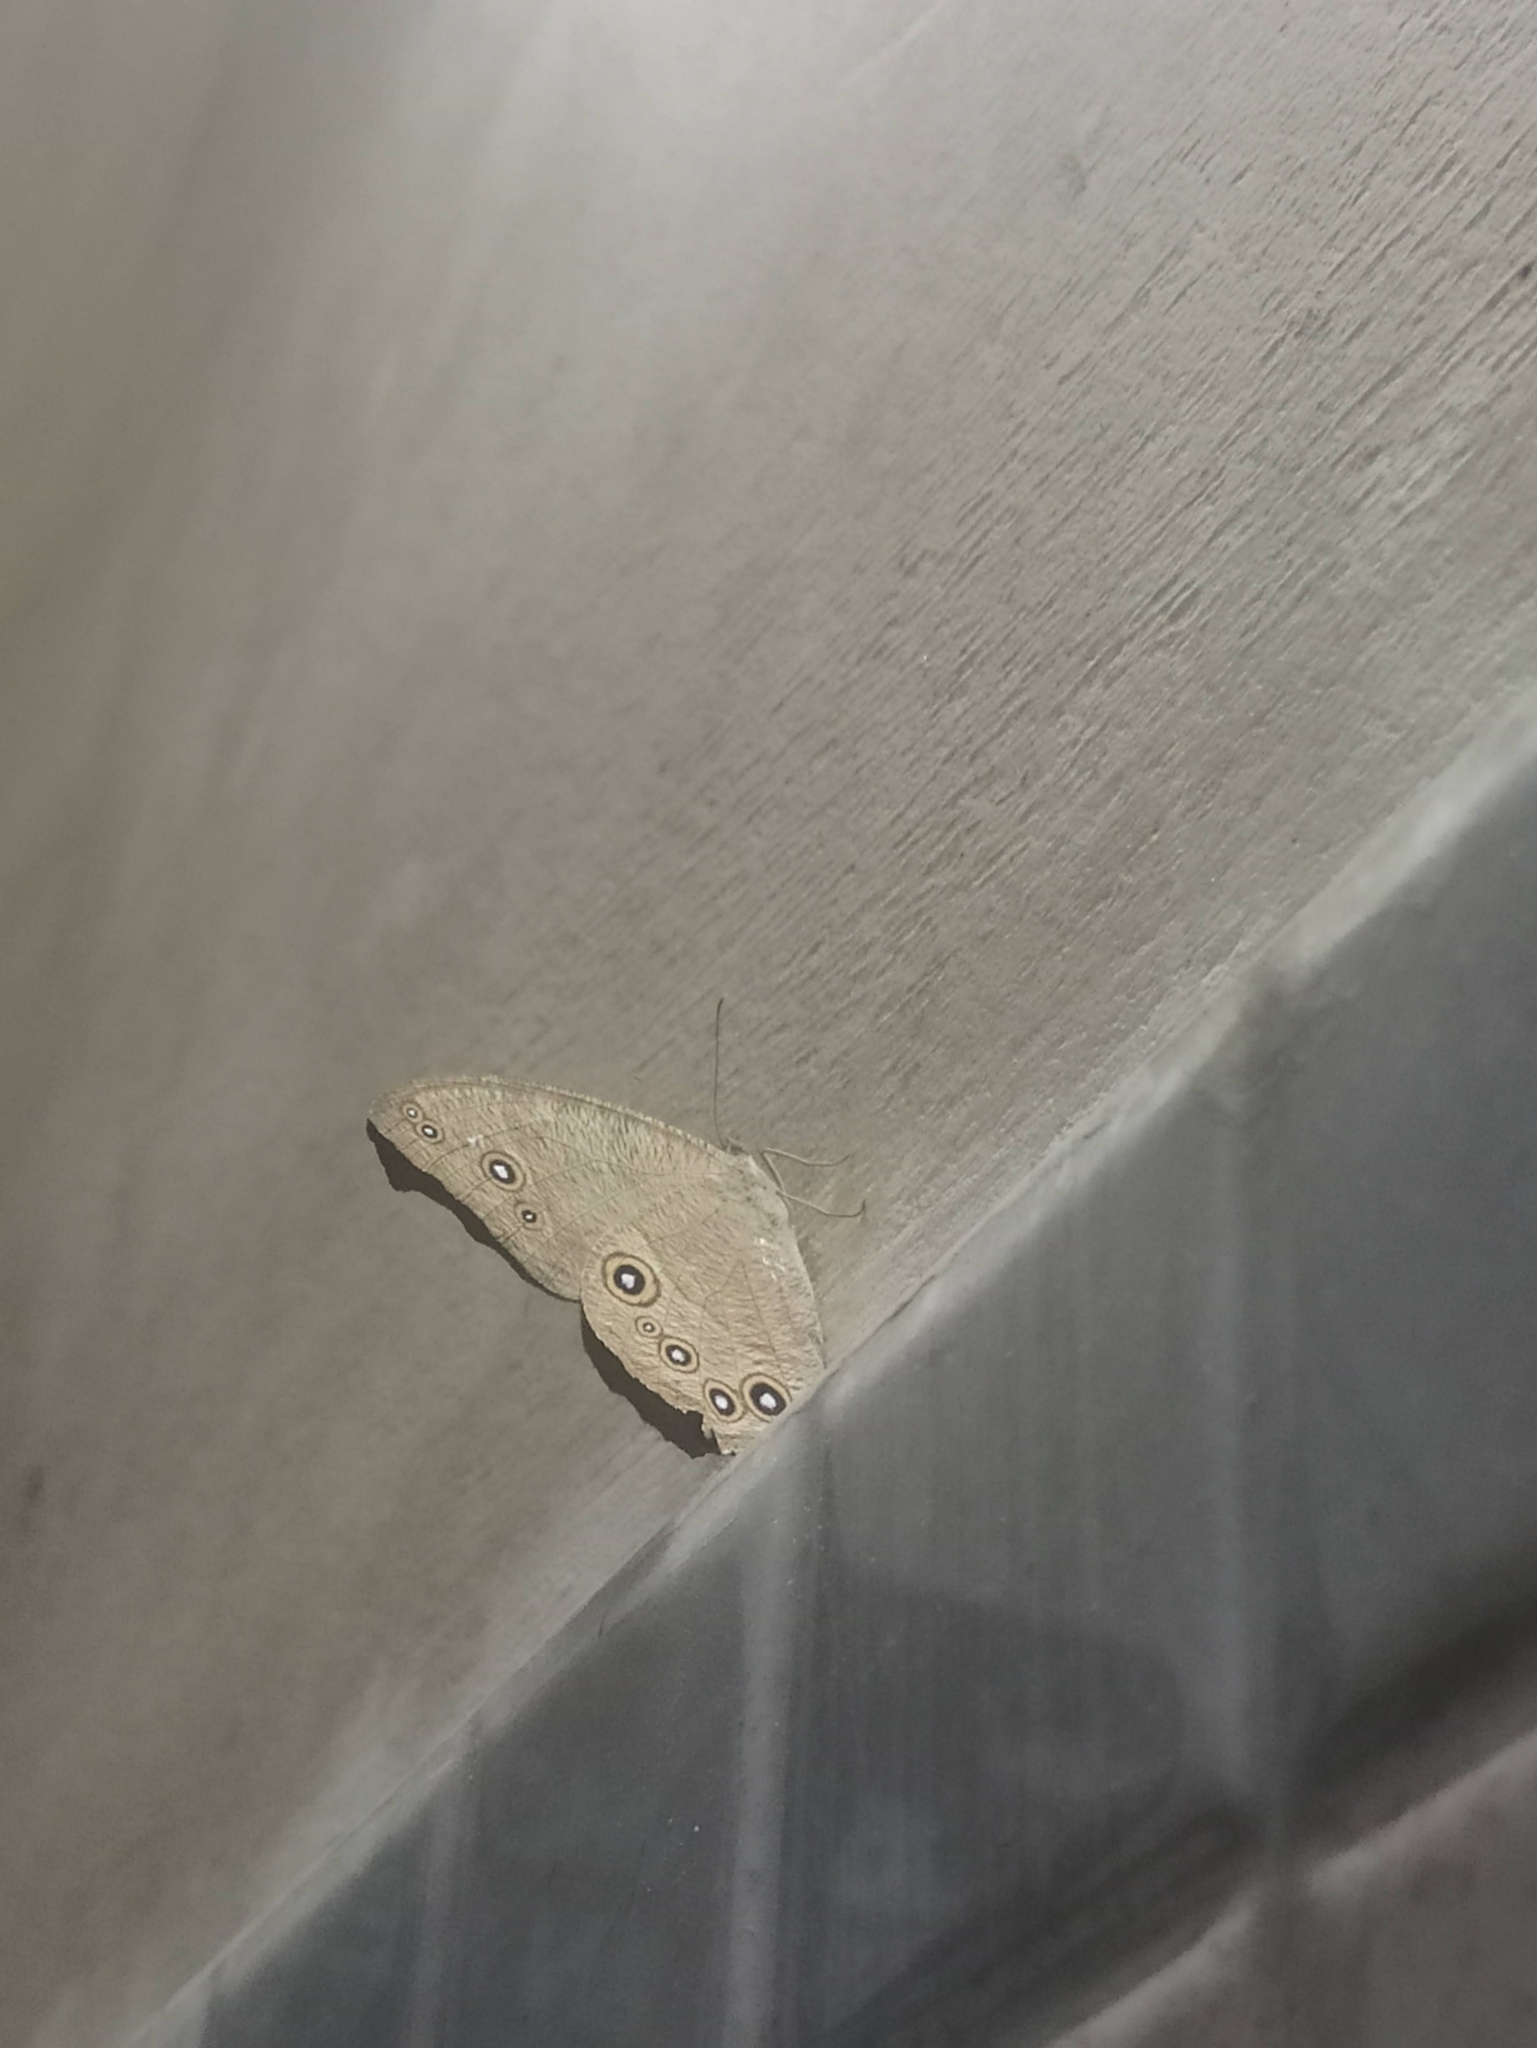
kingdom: Animalia
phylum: Arthropoda
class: Insecta
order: Lepidoptera
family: Nymphalidae
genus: Melanitis
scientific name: Melanitis leda
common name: Twilight brown
